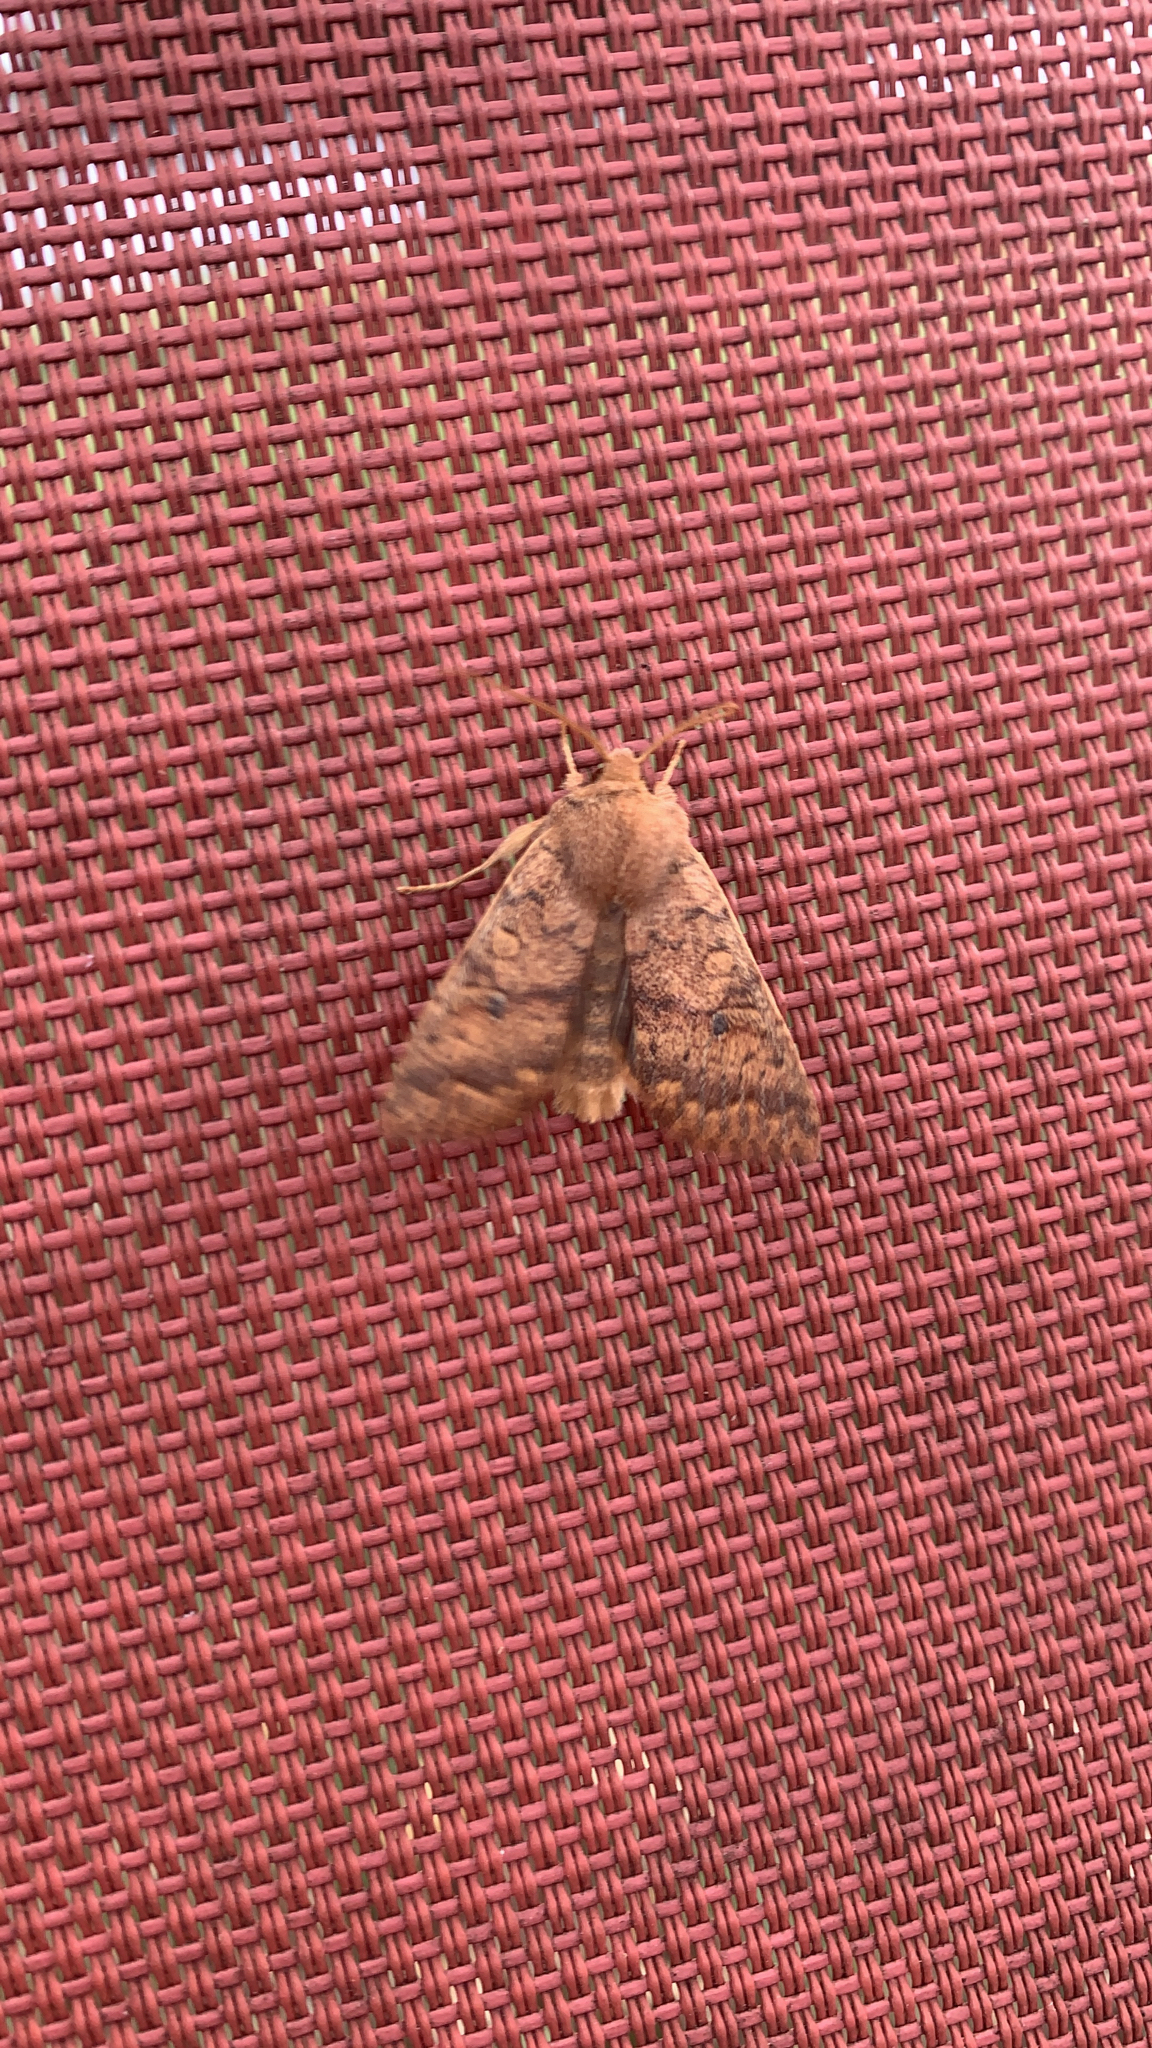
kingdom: Animalia
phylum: Arthropoda
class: Insecta
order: Lepidoptera
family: Noctuidae
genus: Agrochola
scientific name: Agrochola bicolorago
